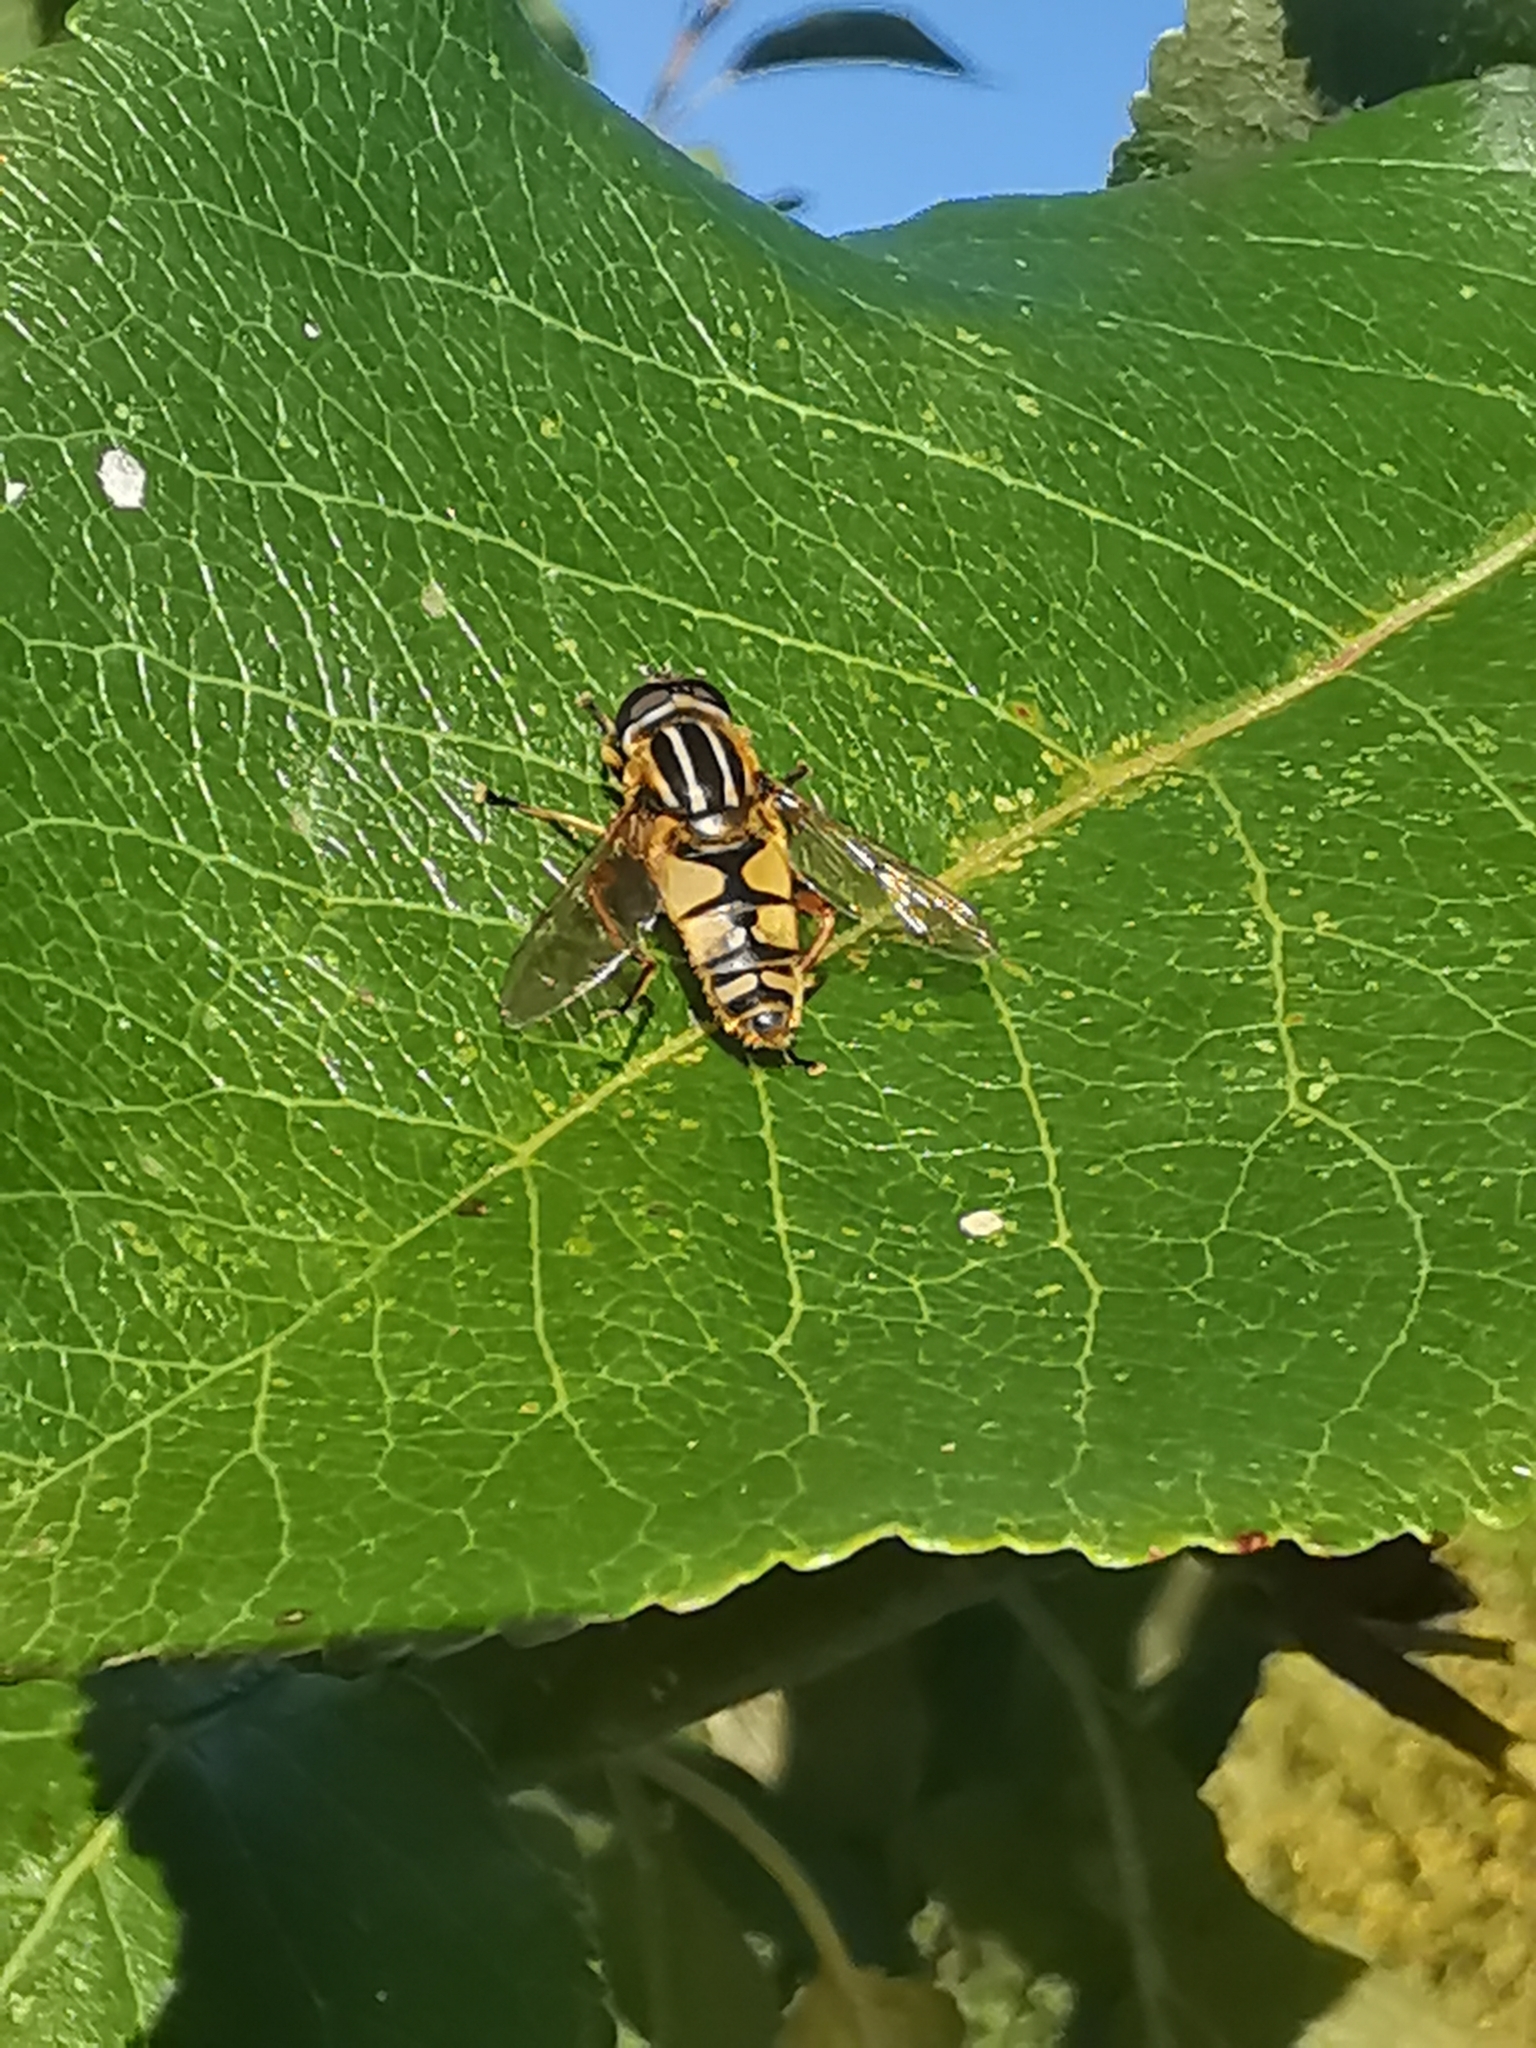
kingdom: Animalia
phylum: Arthropoda
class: Insecta
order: Diptera
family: Syrphidae
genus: Helophilus
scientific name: Helophilus pendulus
